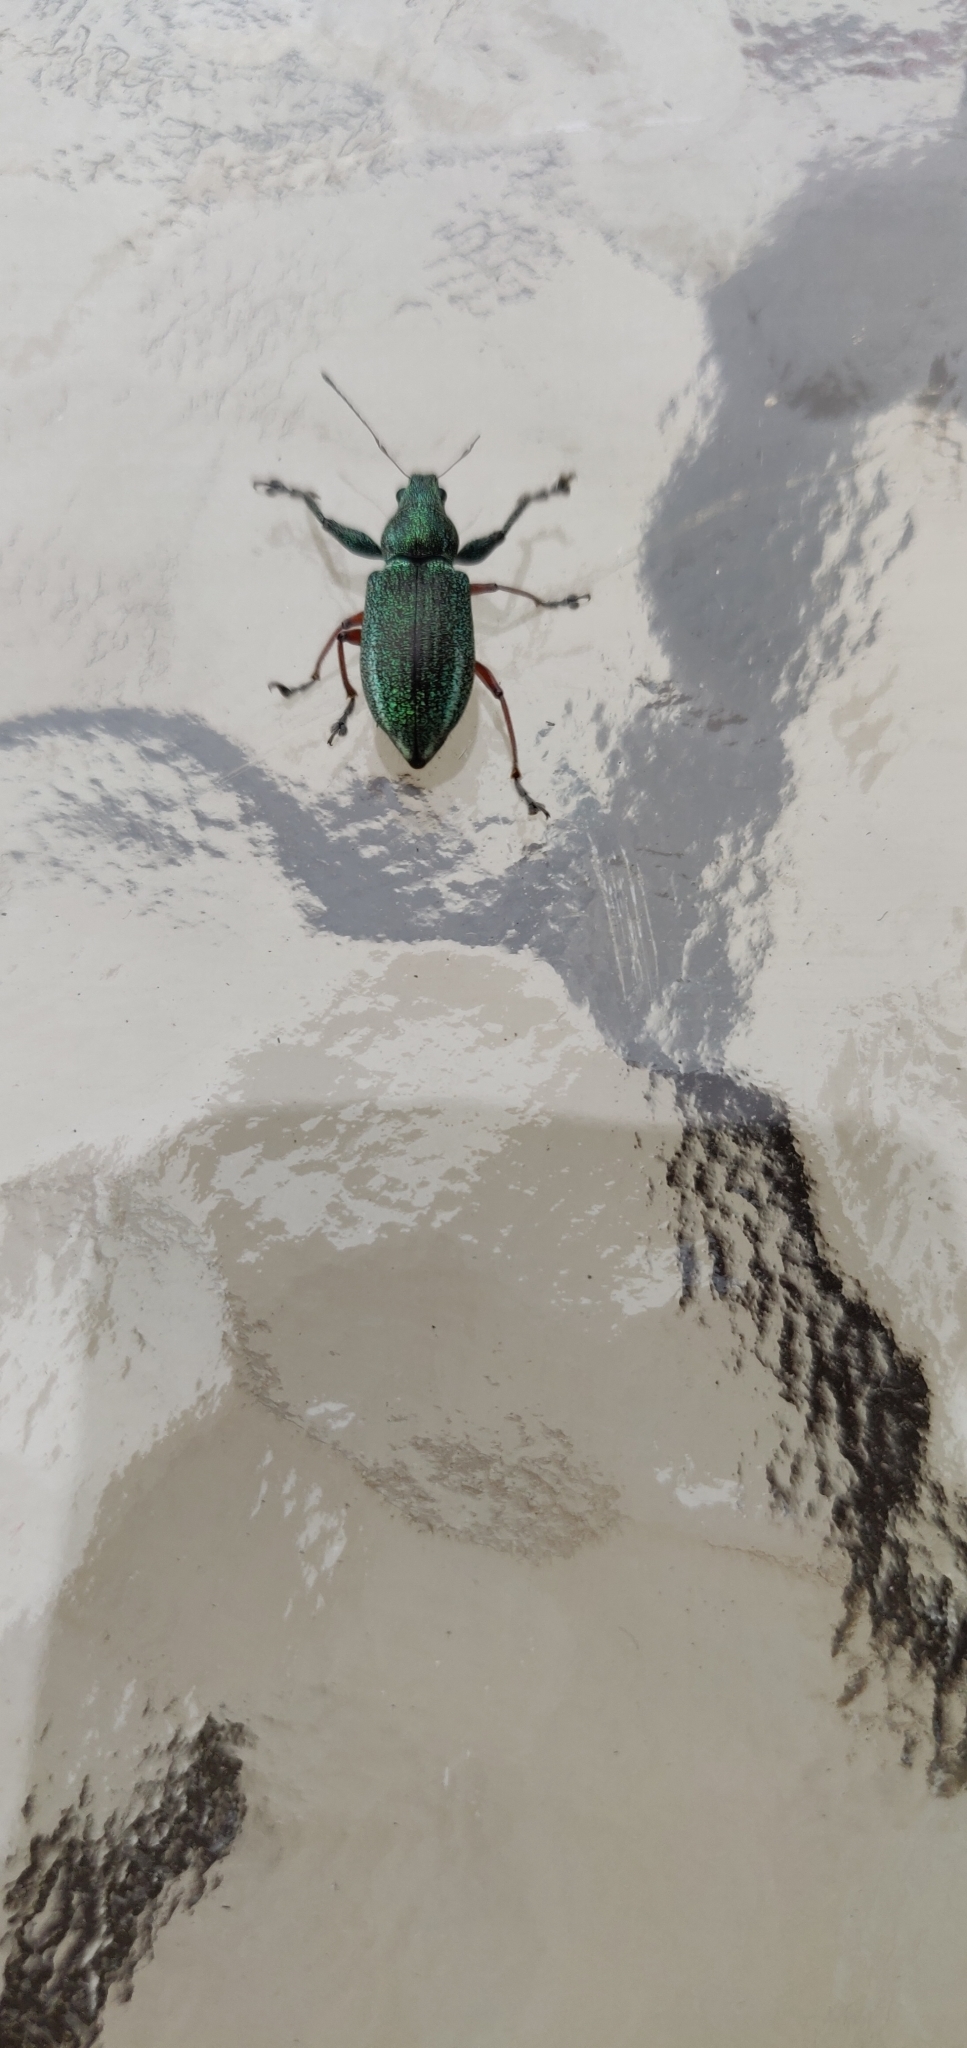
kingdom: Animalia
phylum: Arthropoda
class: Insecta
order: Coleoptera
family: Curculionidae
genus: Naupactus
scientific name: Naupactus auricinctus
